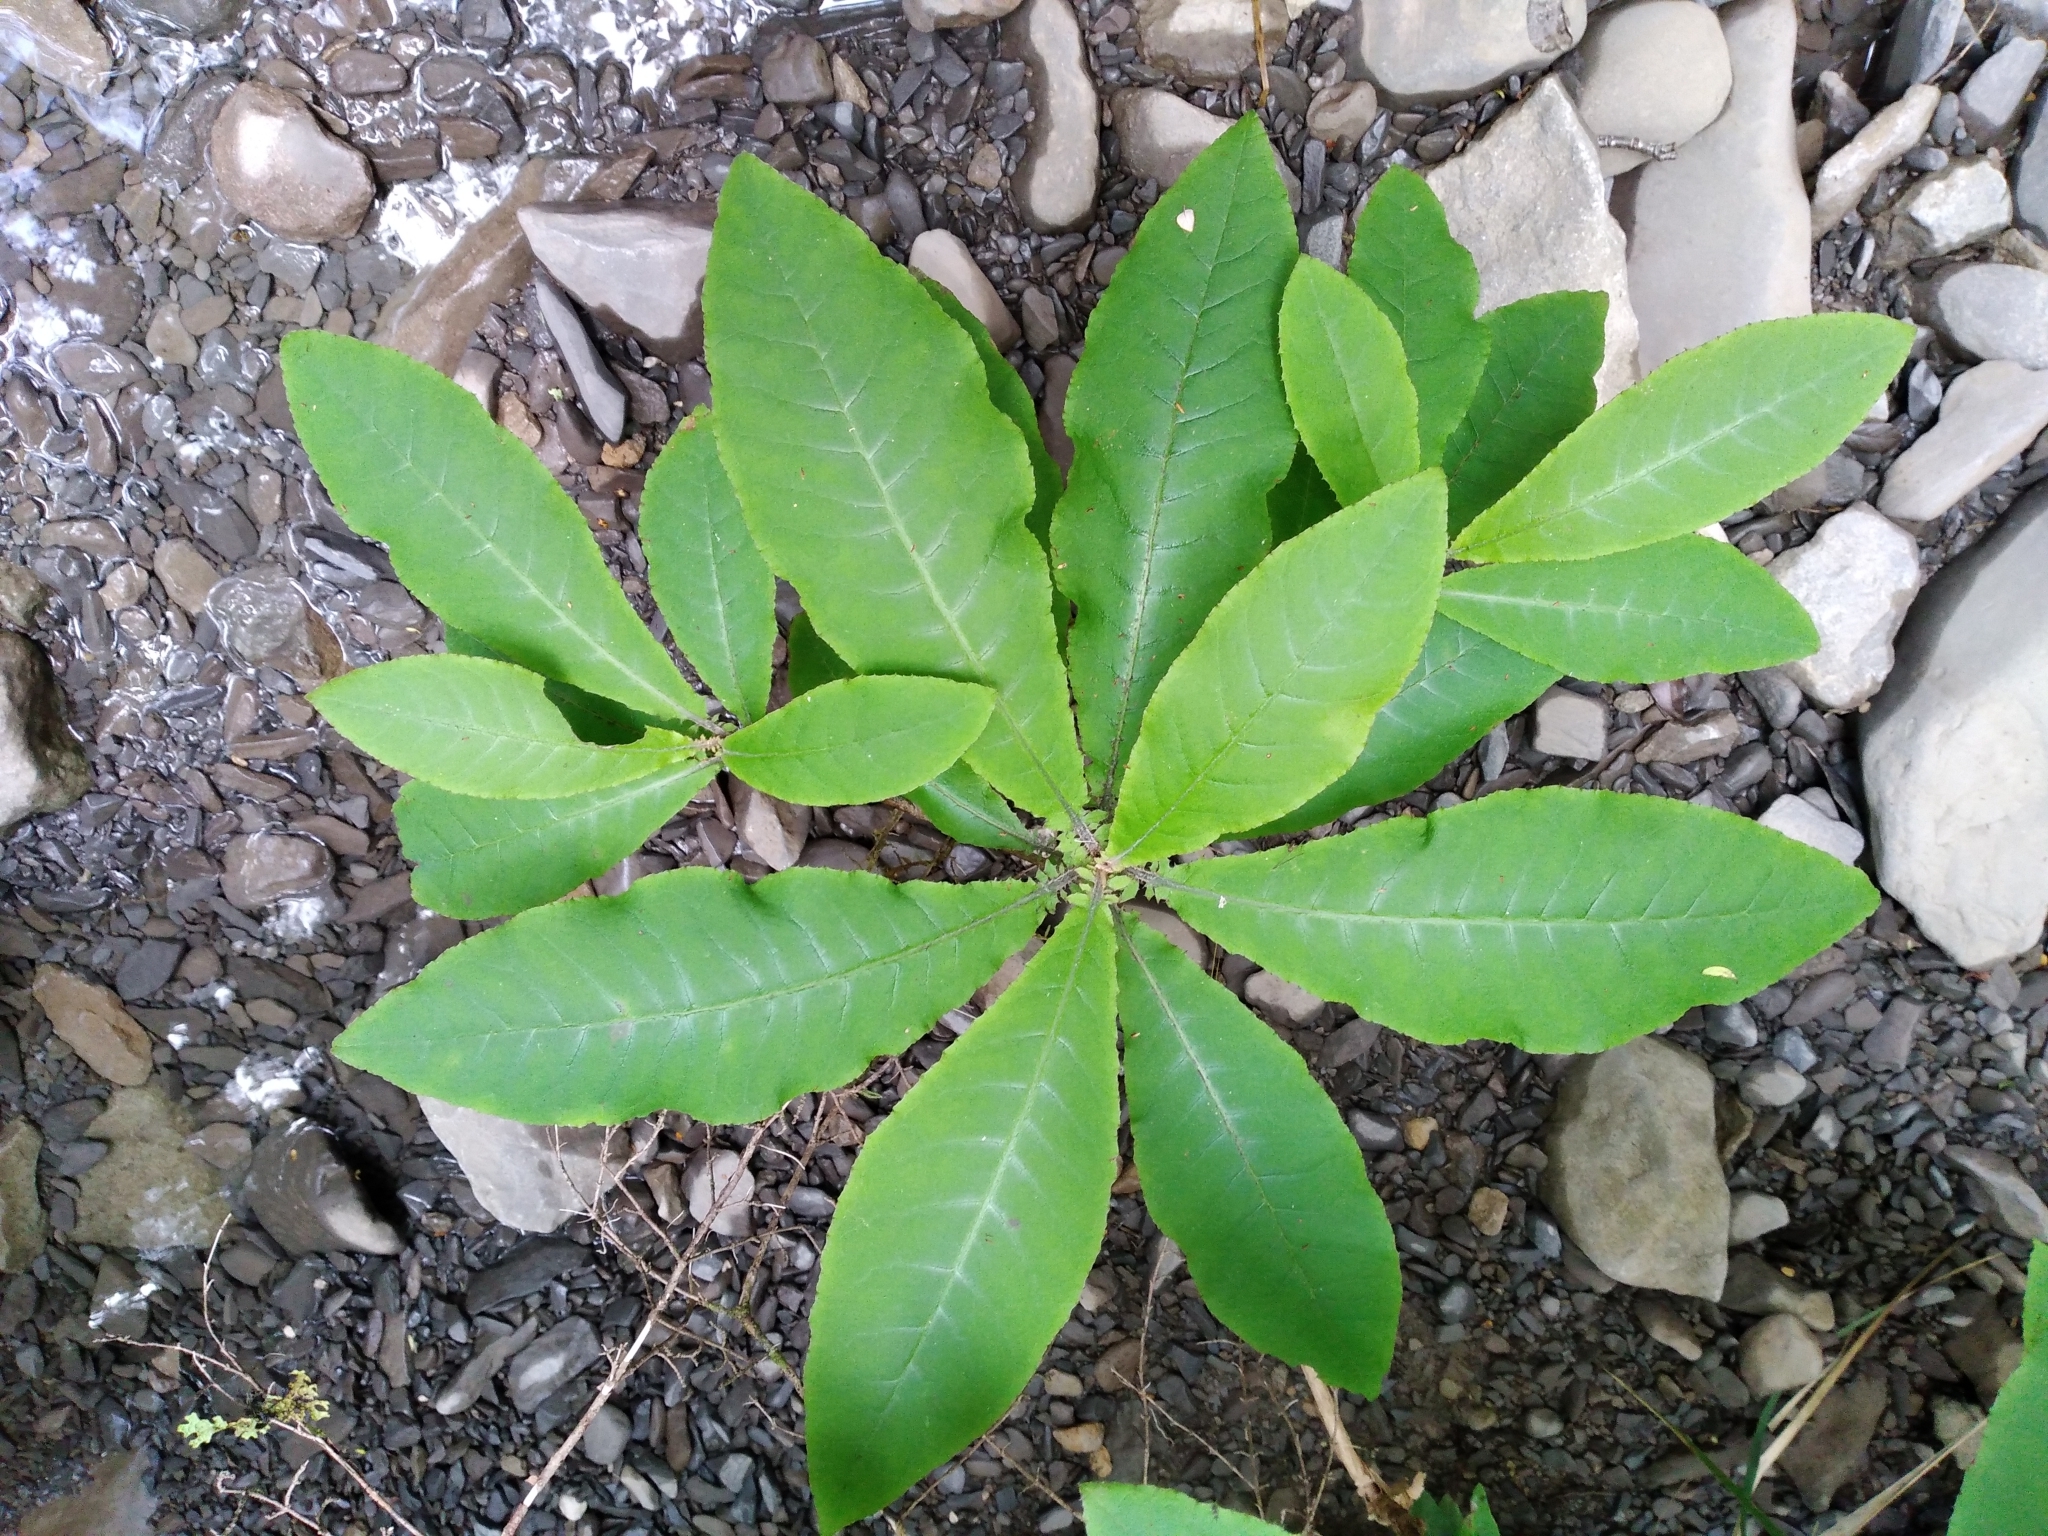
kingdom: Plantae
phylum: Tracheophyta
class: Magnoliopsida
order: Asterales
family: Asteraceae
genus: Brachyglottis
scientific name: Brachyglottis hectorii
